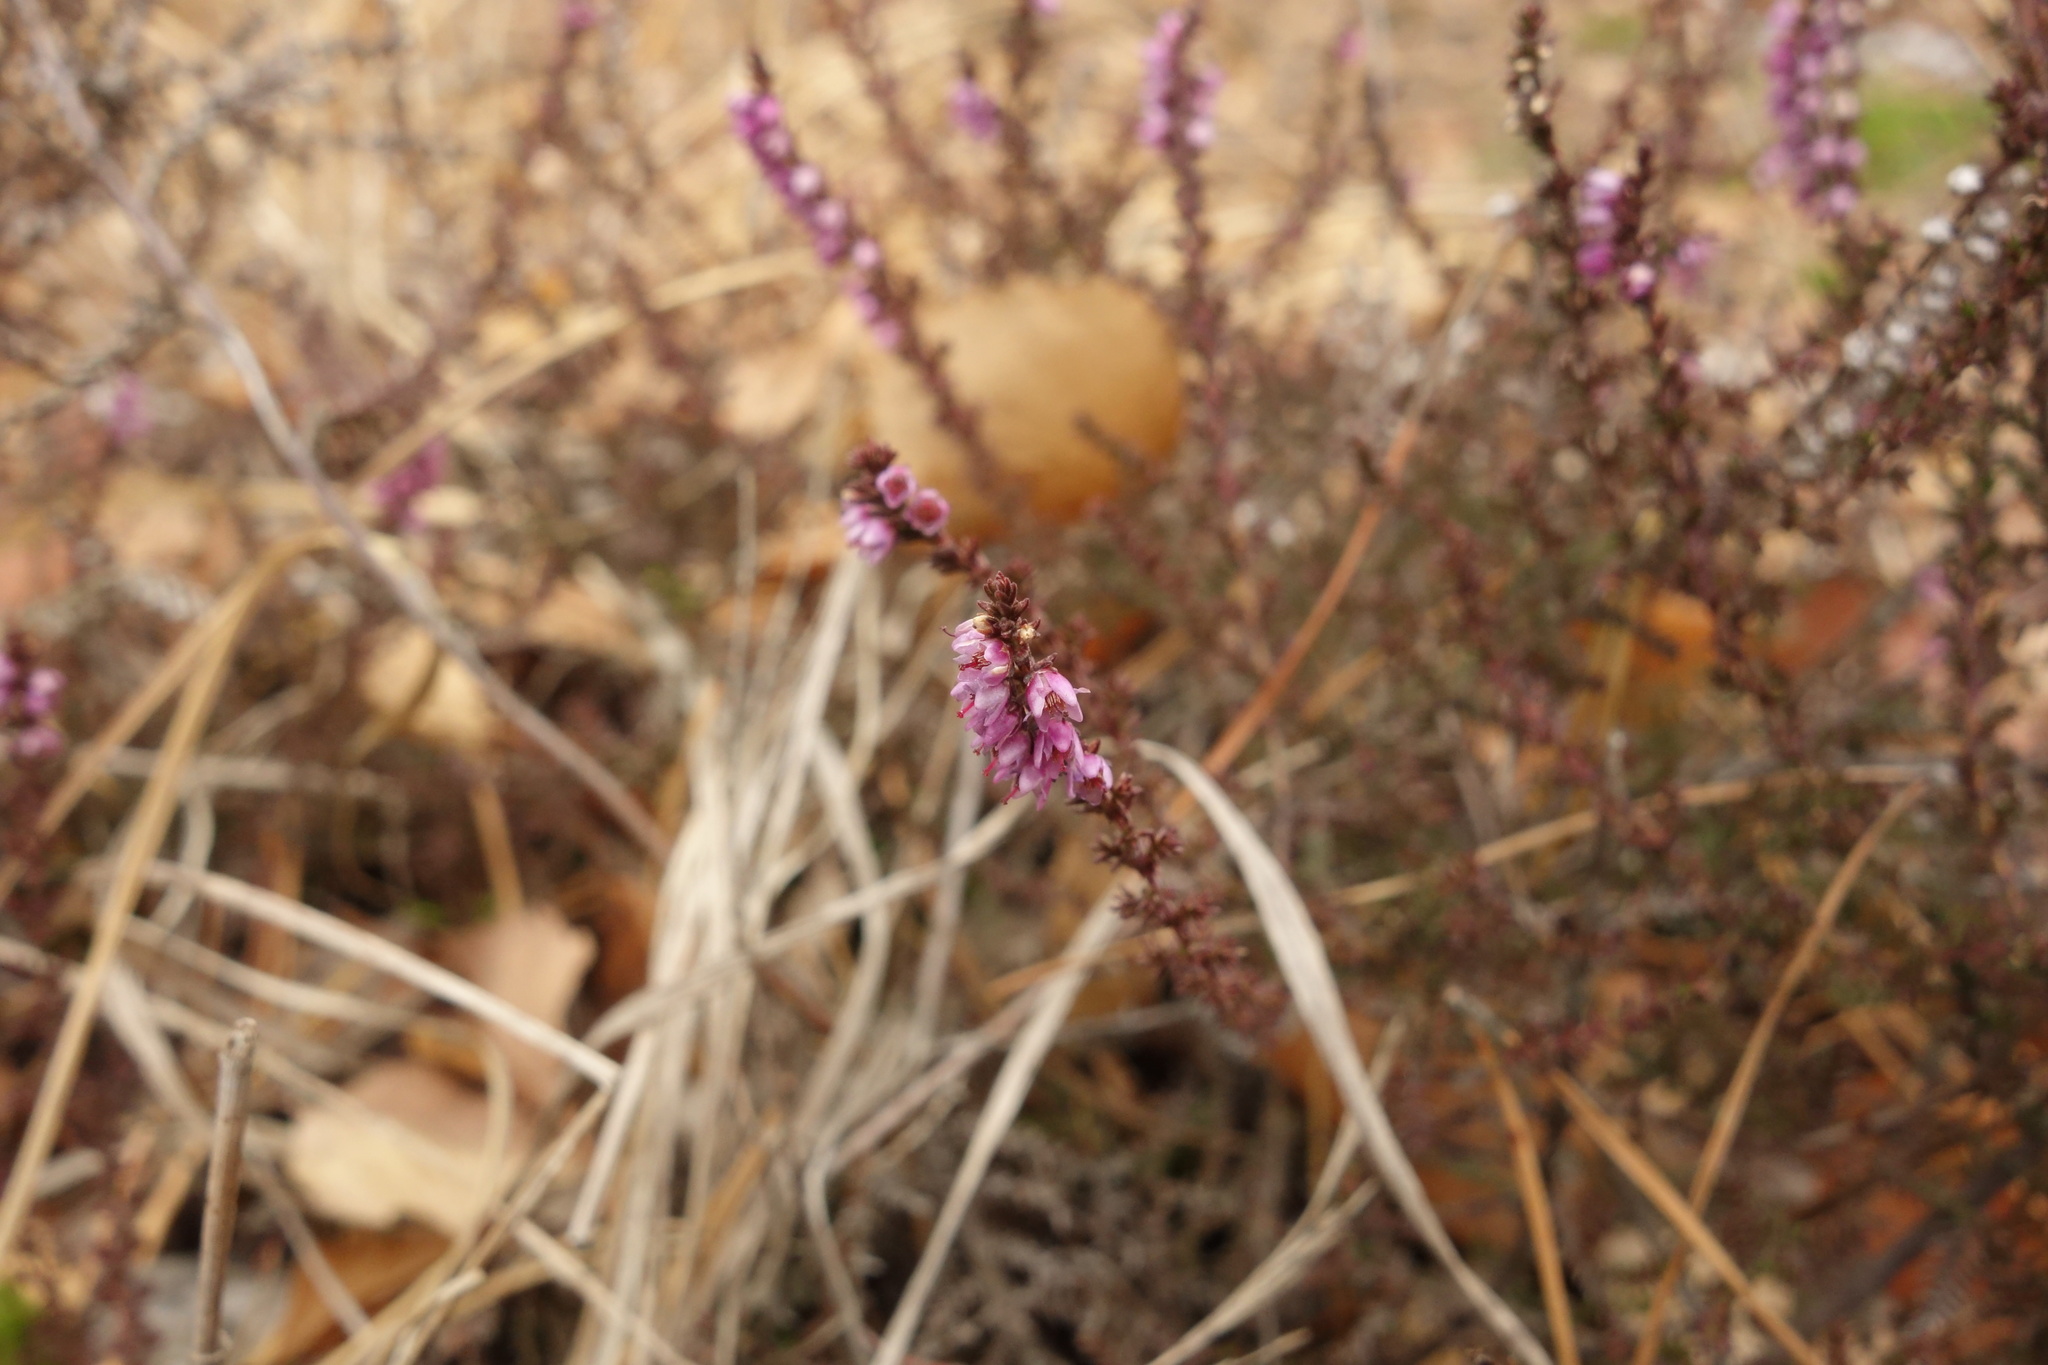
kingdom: Plantae
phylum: Tracheophyta
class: Magnoliopsida
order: Ericales
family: Ericaceae
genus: Calluna
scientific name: Calluna vulgaris
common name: Heather
